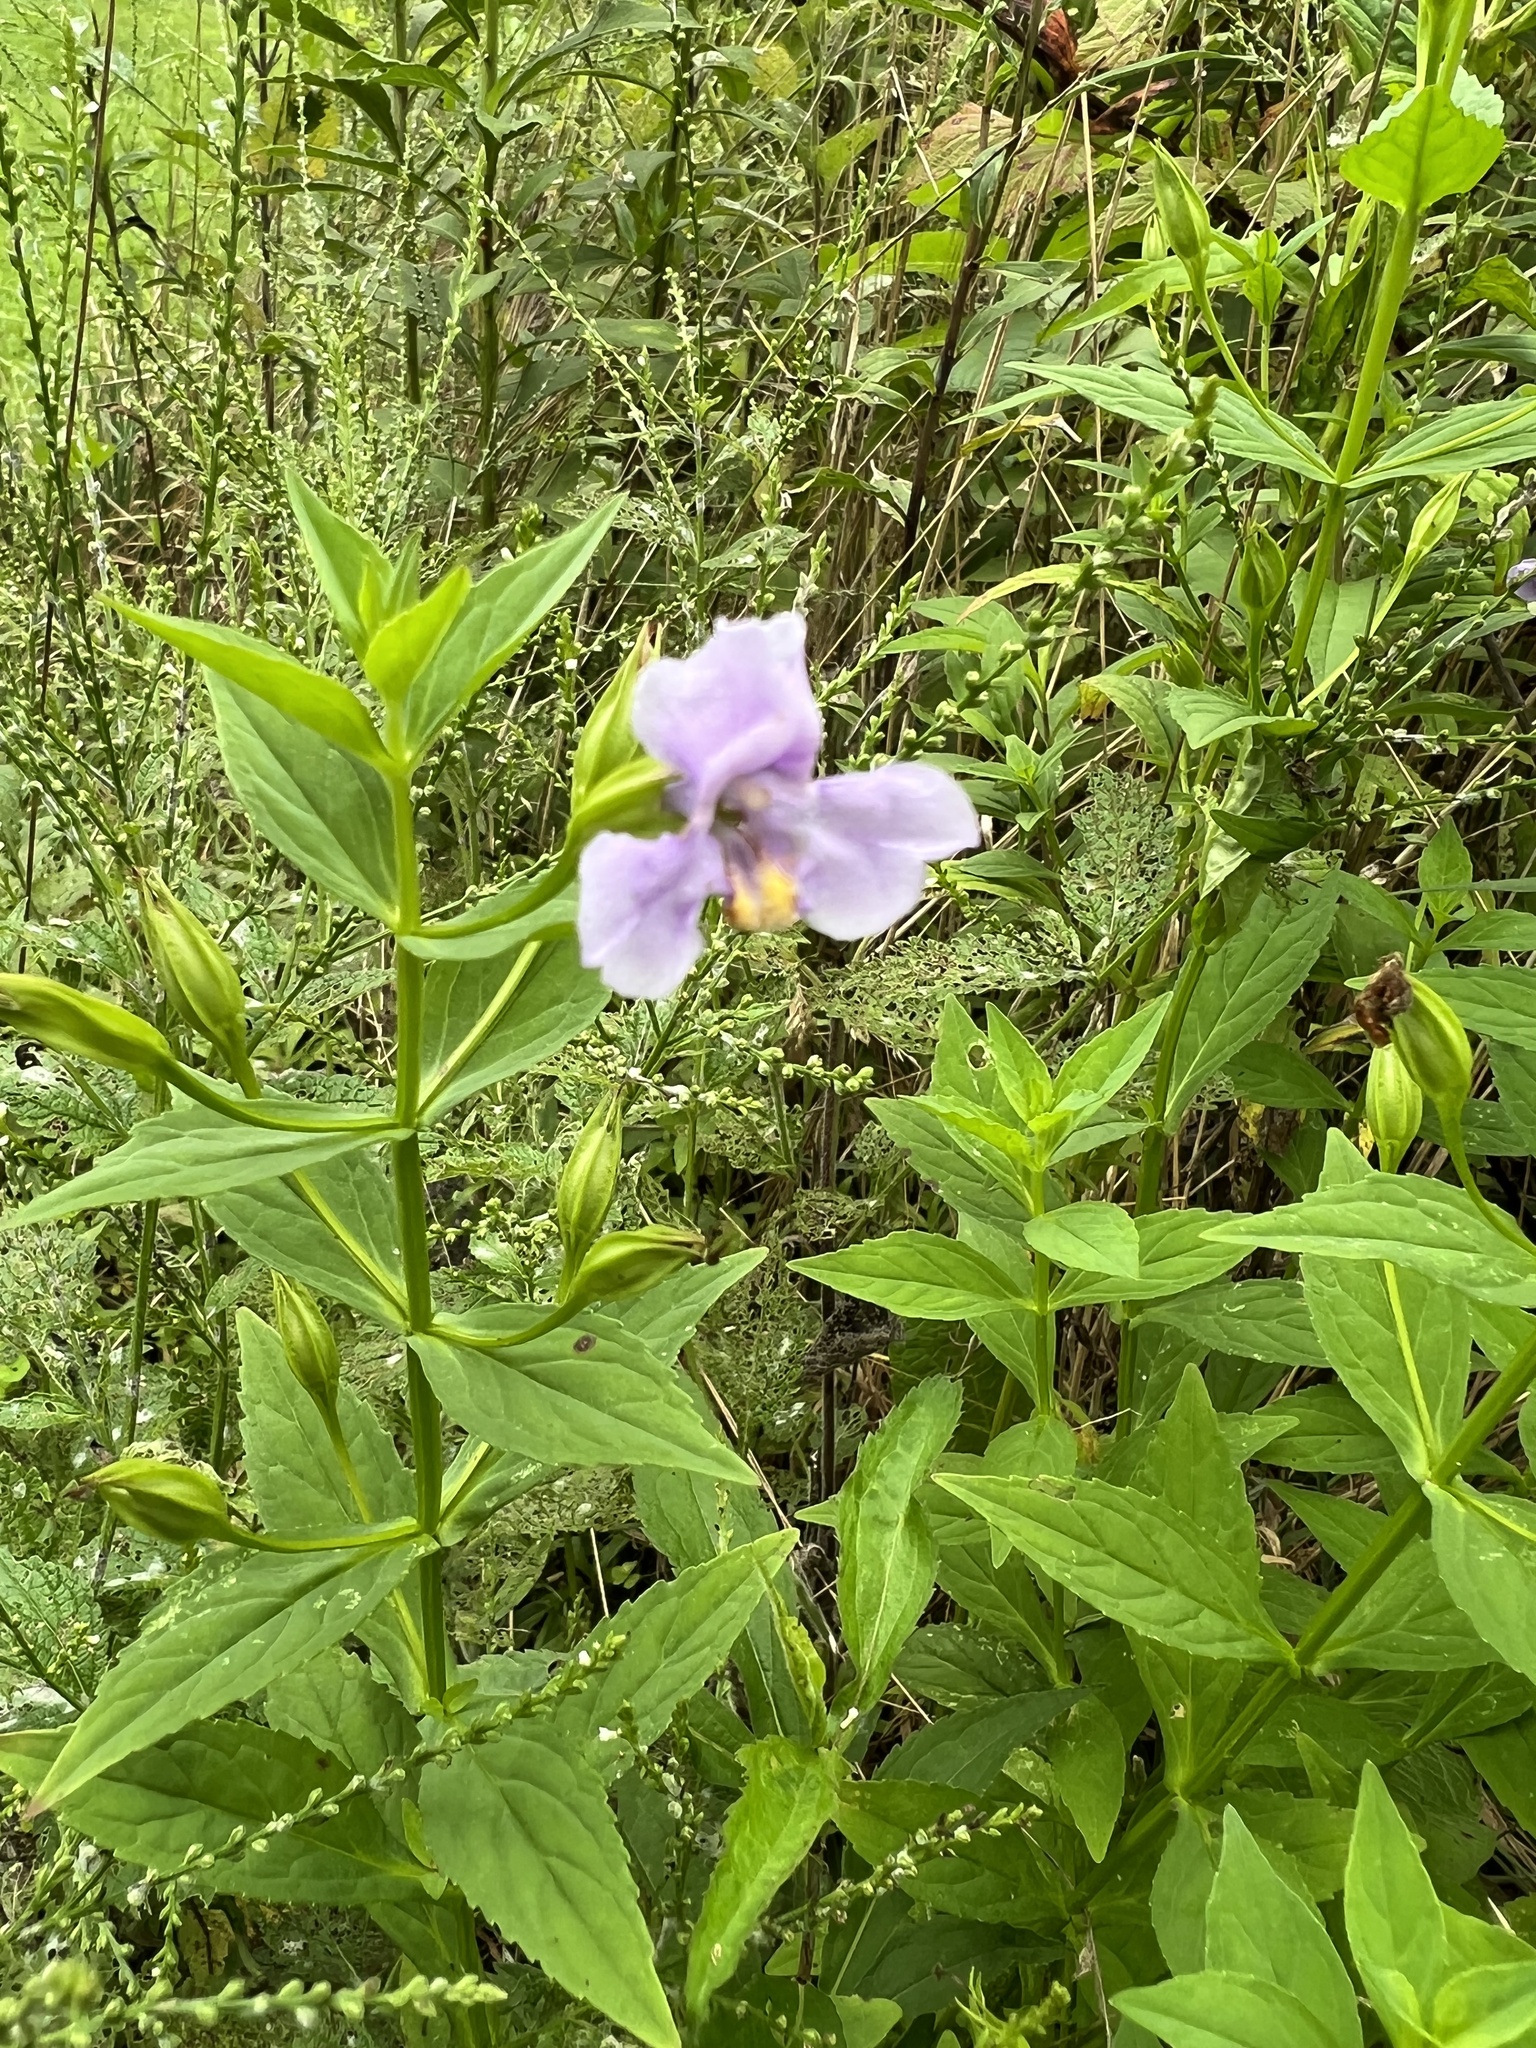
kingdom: Plantae
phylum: Tracheophyta
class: Magnoliopsida
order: Lamiales
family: Phrymaceae
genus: Mimulus
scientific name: Mimulus ringens
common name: Allegheny monkeyflower
